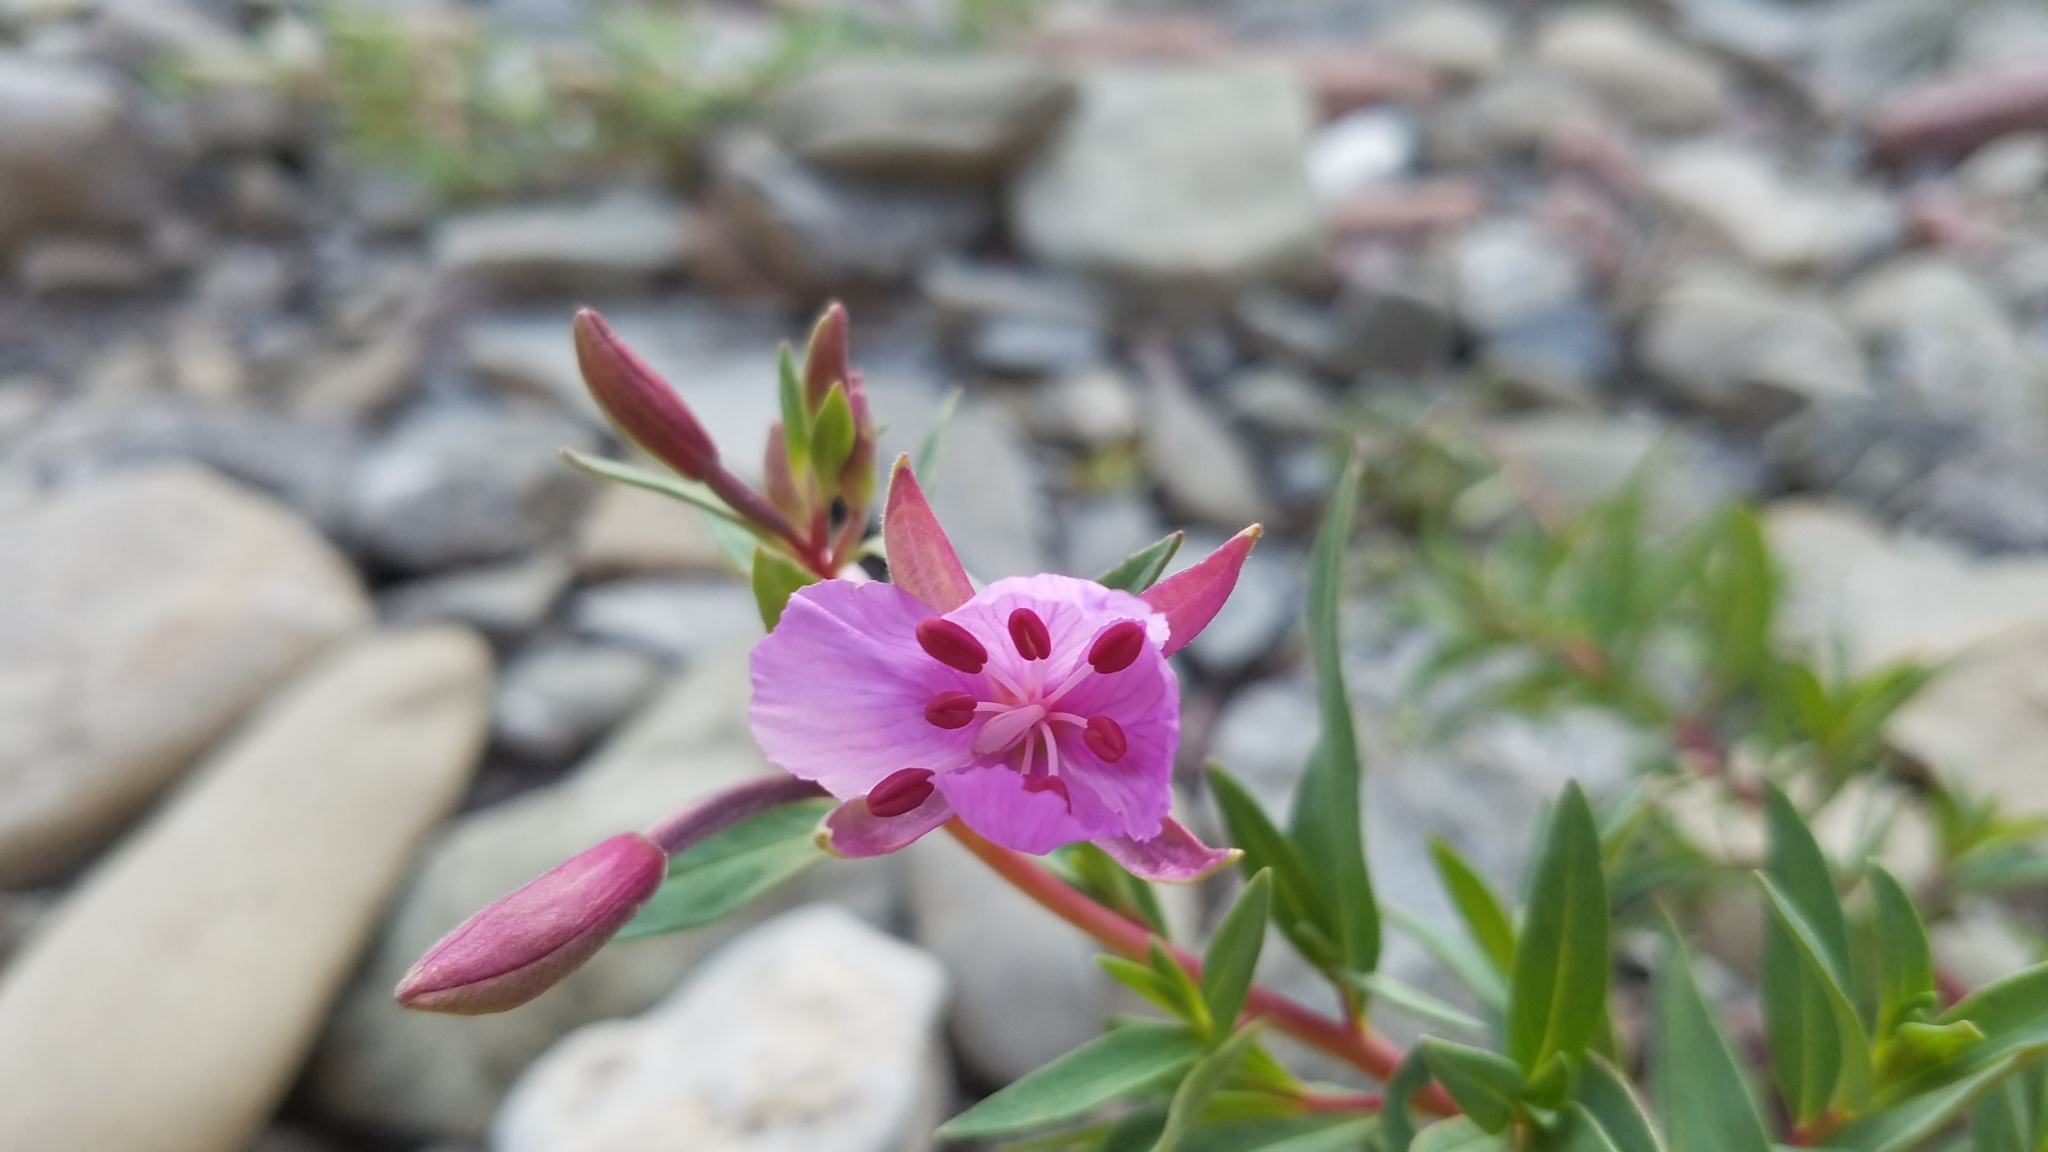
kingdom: Plantae
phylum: Tracheophyta
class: Magnoliopsida
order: Myrtales
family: Onagraceae
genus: Chamaenerion
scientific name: Chamaenerion latifolium
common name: Dwarf fireweed
